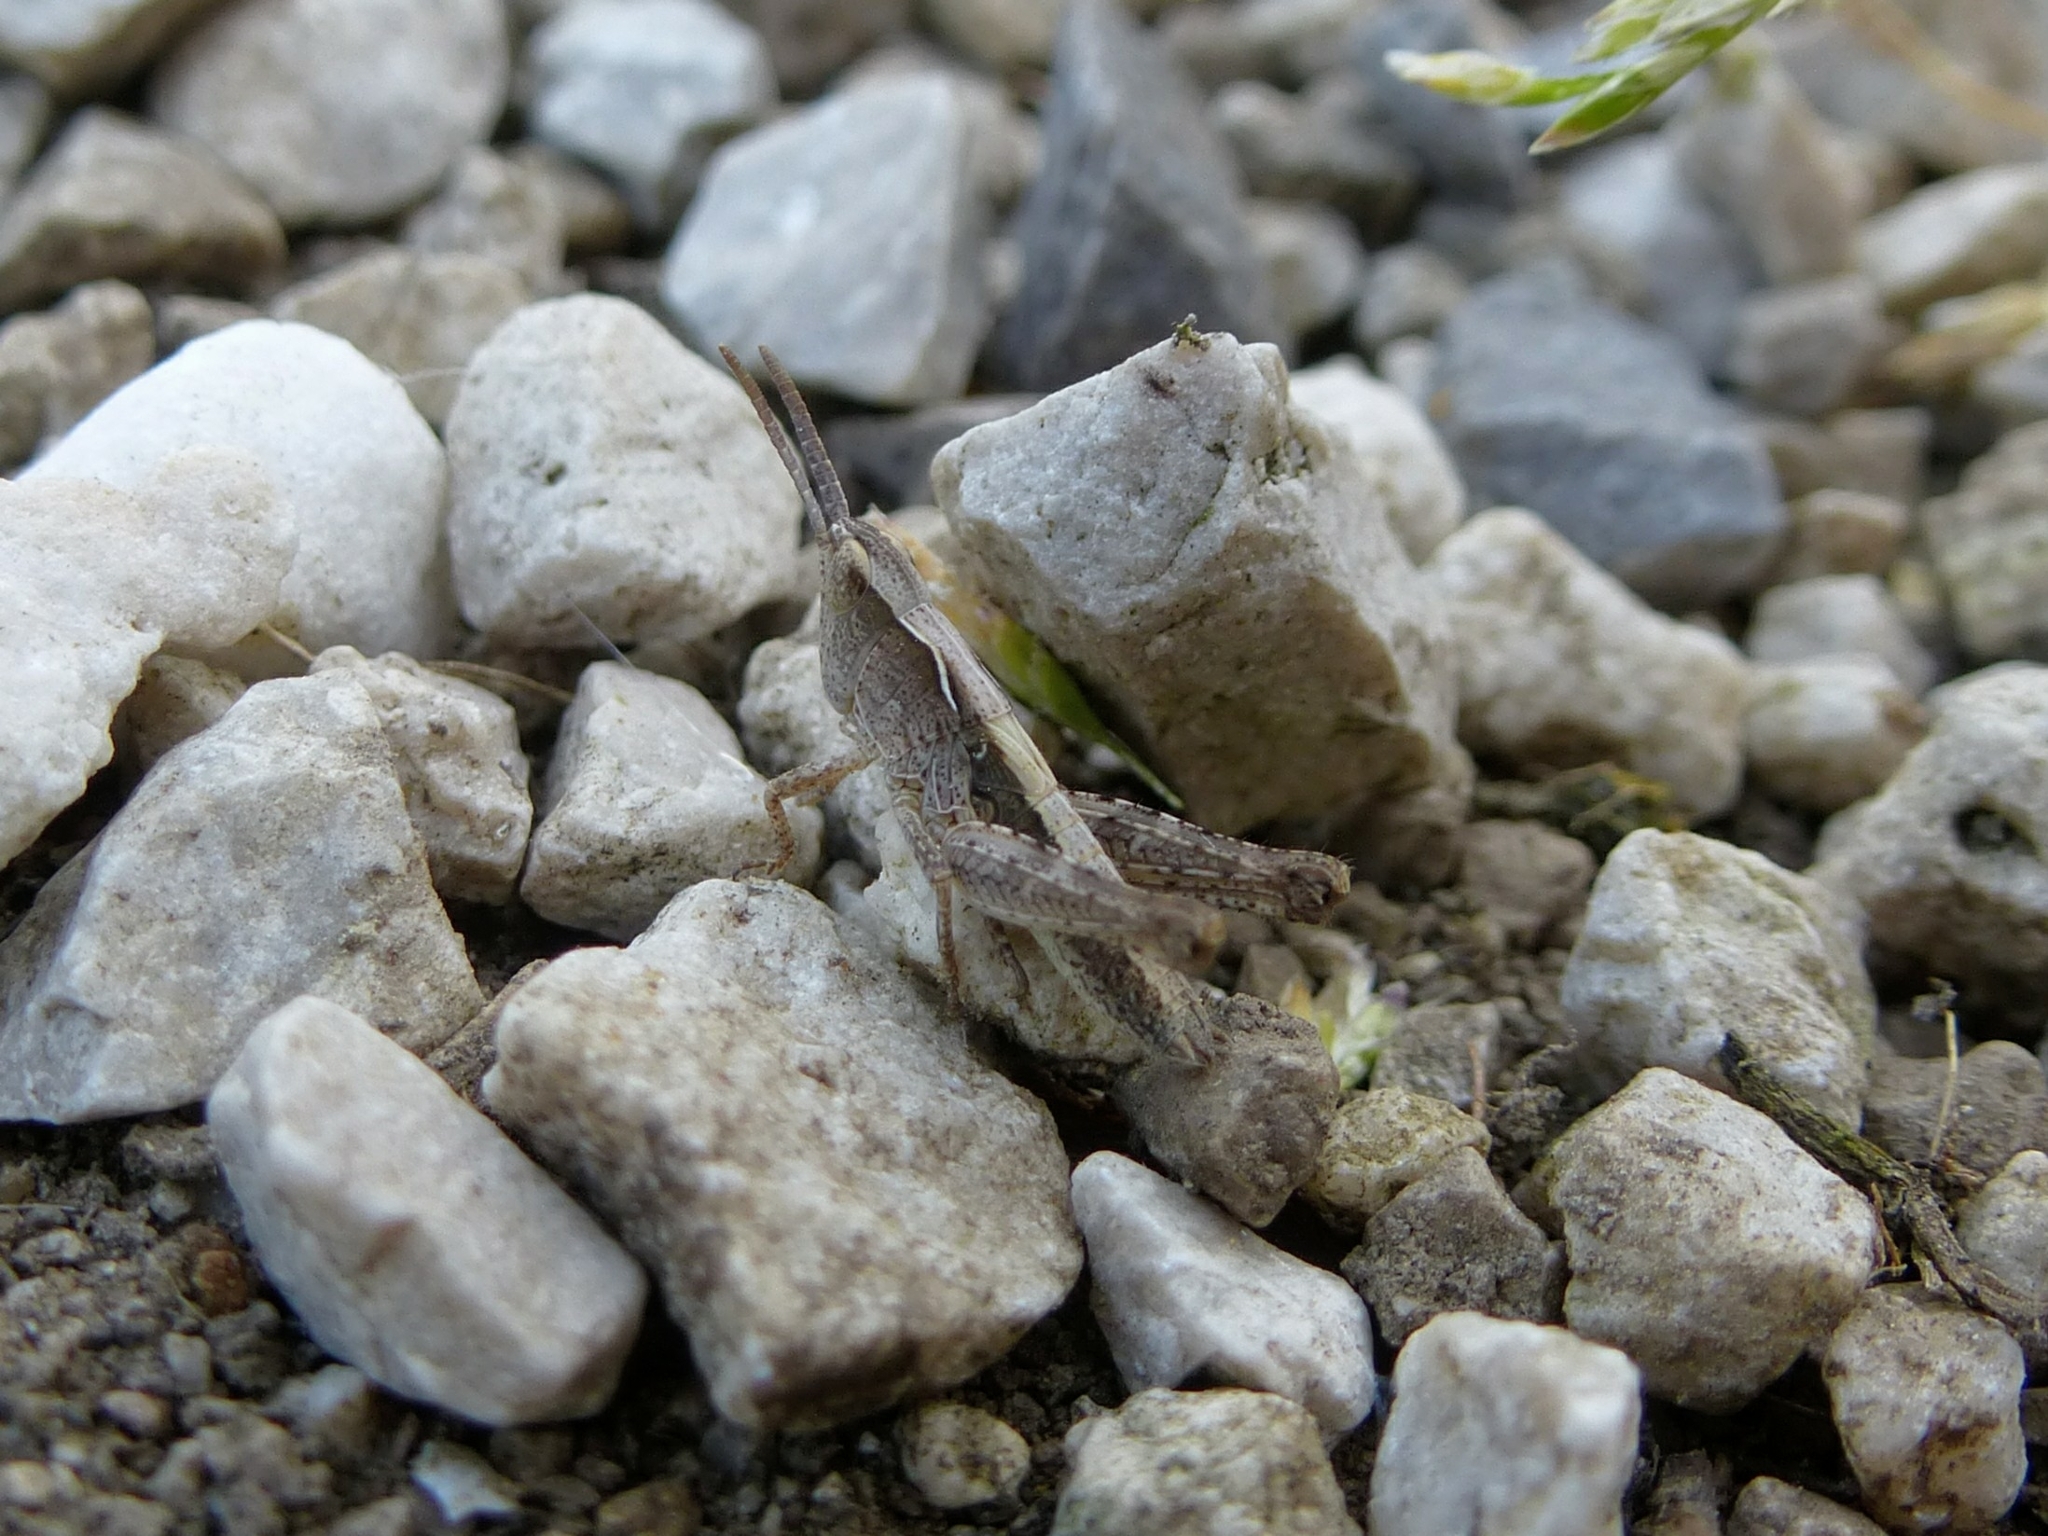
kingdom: Animalia
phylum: Arthropoda
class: Insecta
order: Orthoptera
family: Acrididae
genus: Chorthippus
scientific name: Chorthippus
